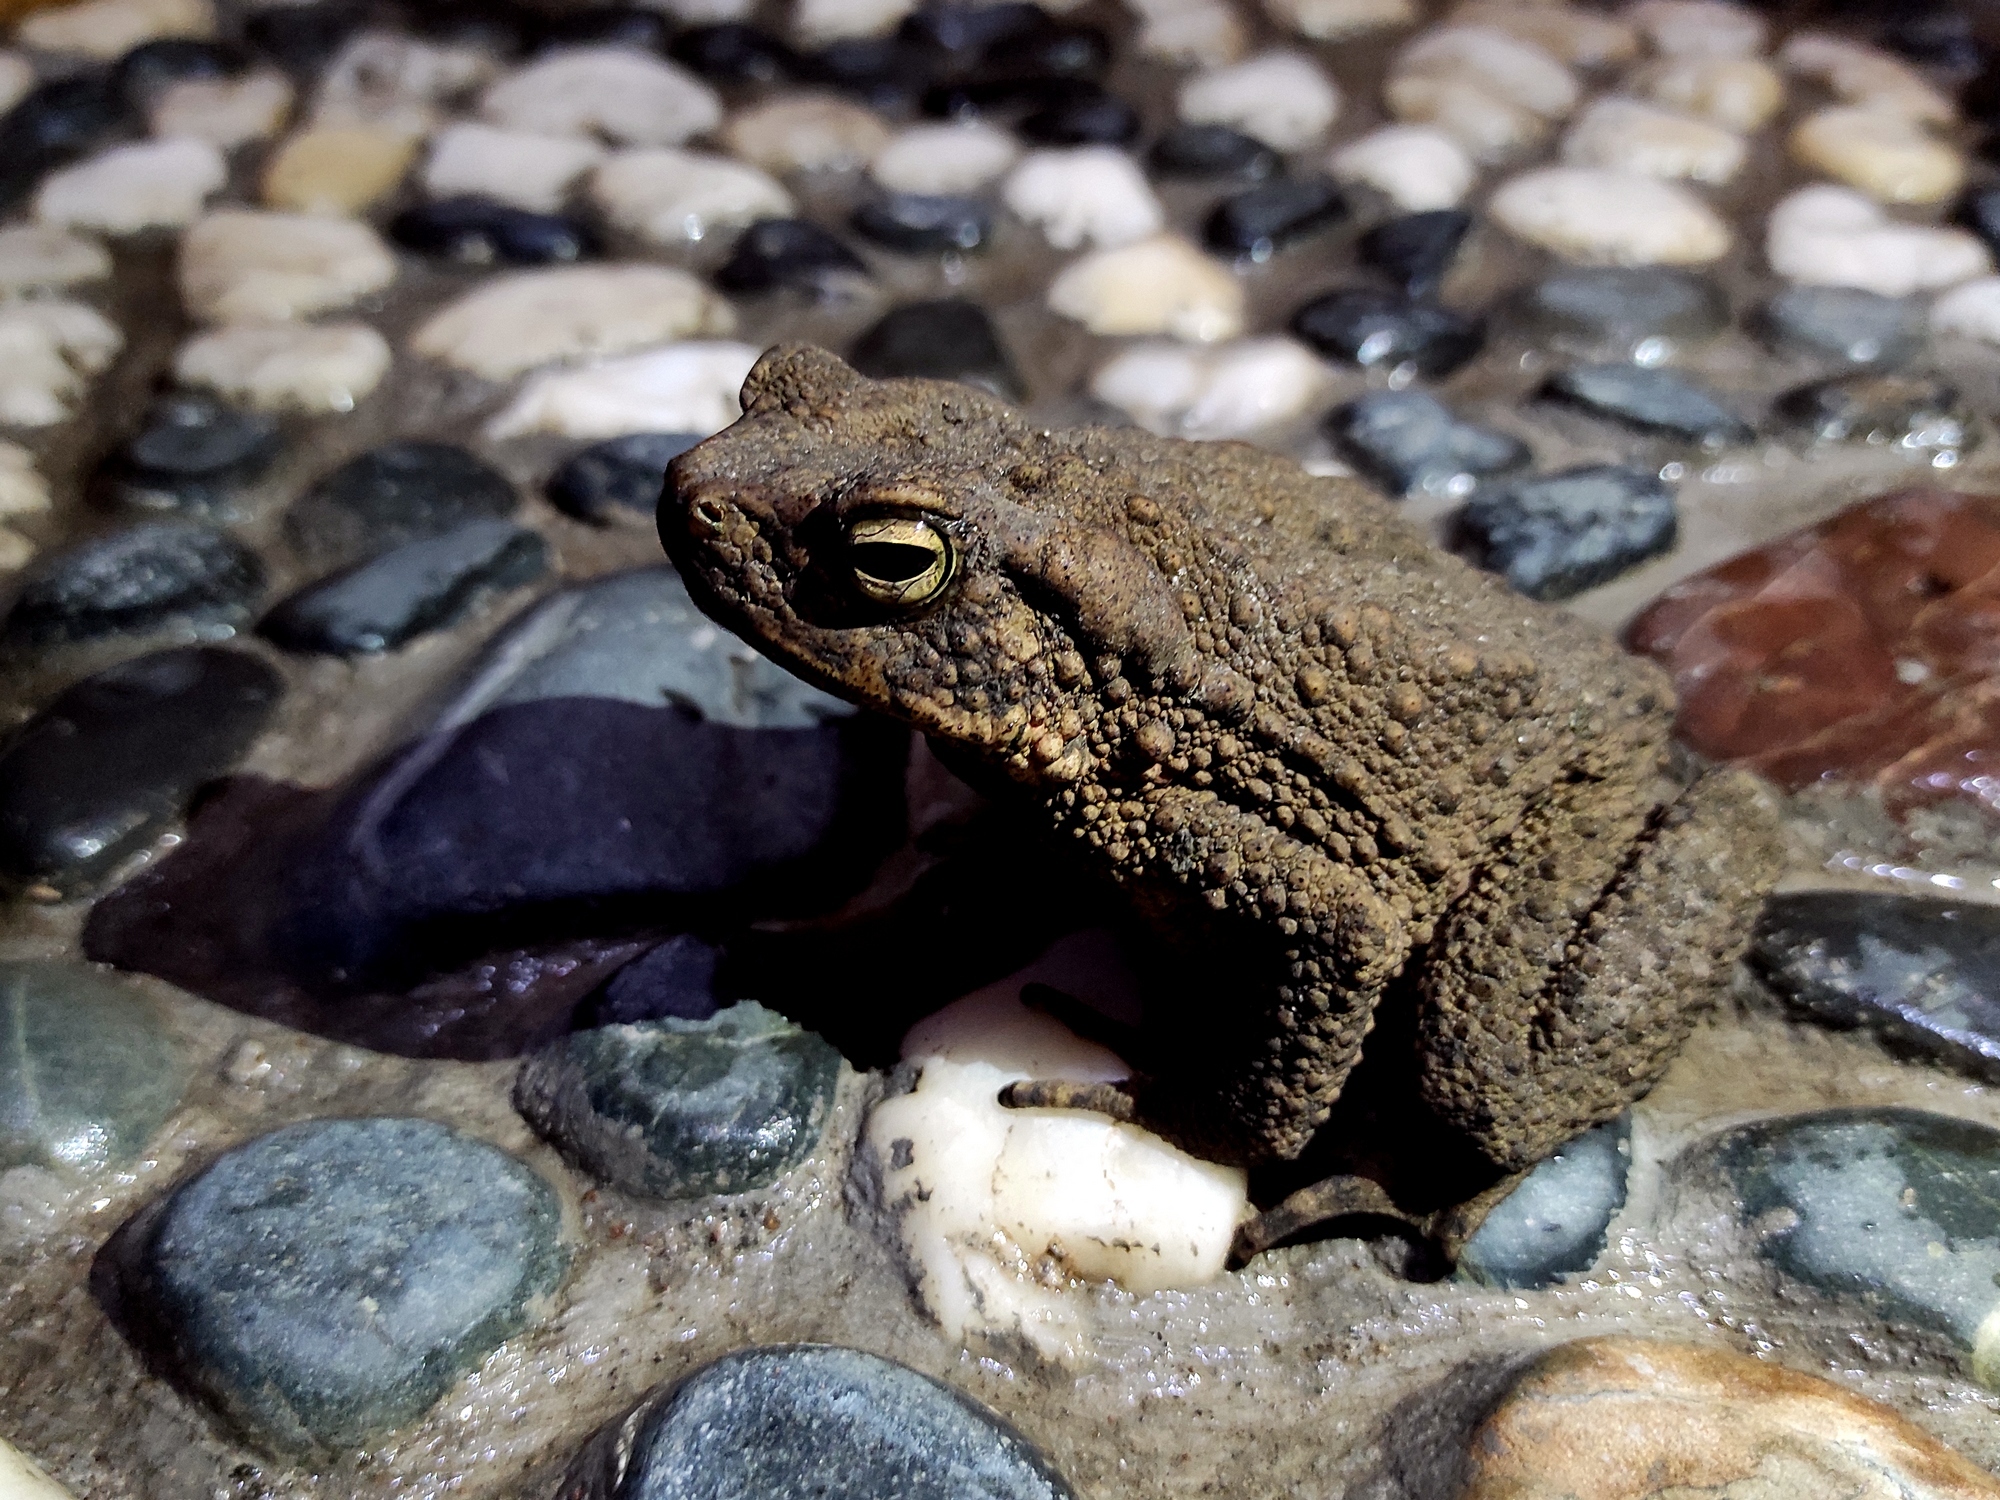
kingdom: Animalia
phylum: Chordata
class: Amphibia
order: Anura
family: Bufonidae
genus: Phrynoidis
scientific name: Phrynoidis asper
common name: Asian giant toad
